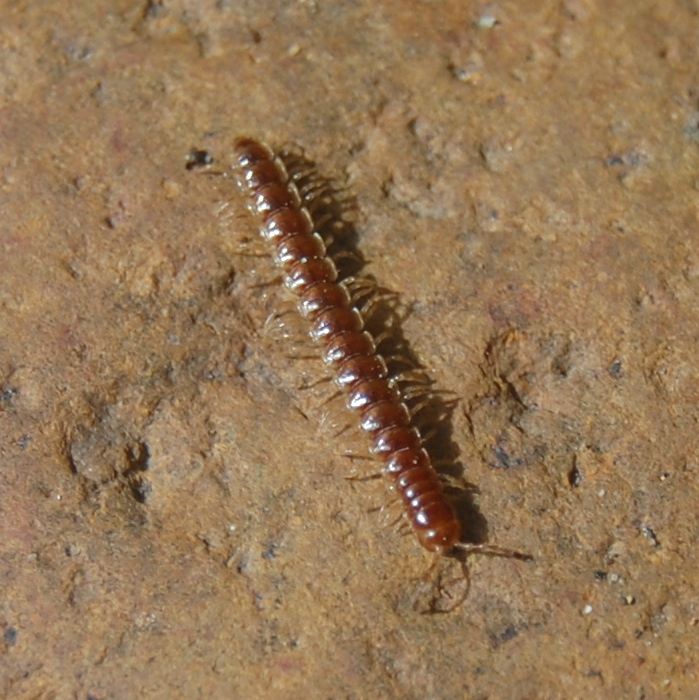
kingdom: Animalia
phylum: Arthropoda
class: Diplopoda
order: Polydesmida
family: Paradoxosomatidae
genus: Oxidus
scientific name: Oxidus gracilis
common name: Greenhouse millipede
